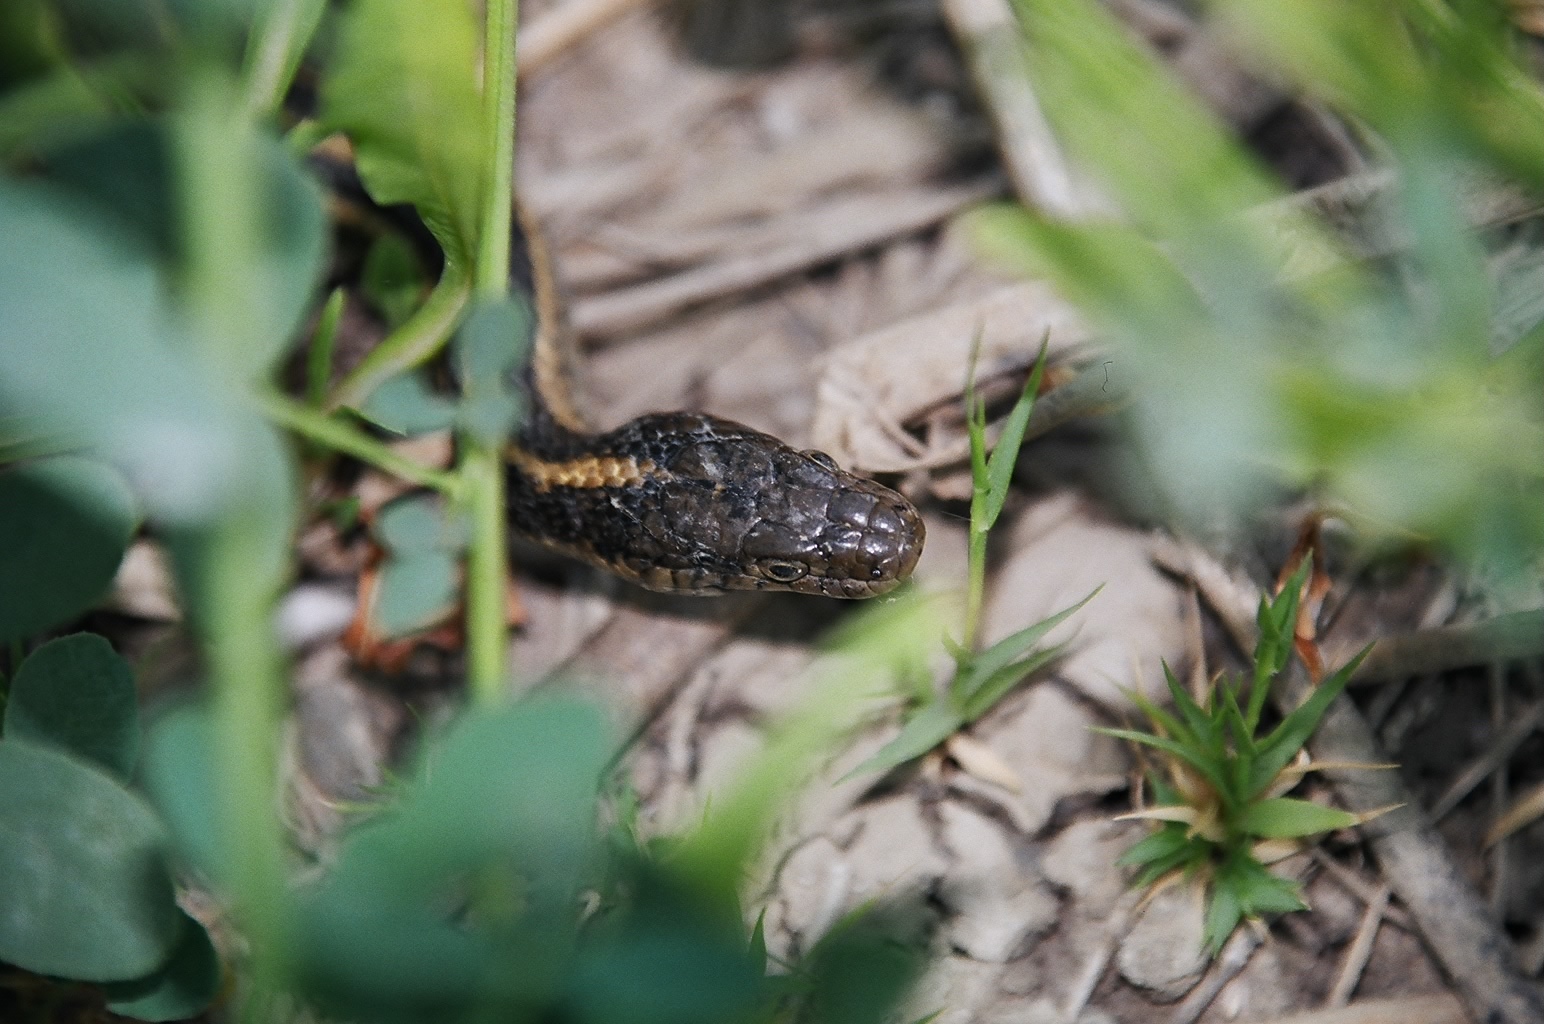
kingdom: Animalia
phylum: Chordata
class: Squamata
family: Colubridae
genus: Thamnophis
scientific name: Thamnophis gigas
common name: Giant garter snake
